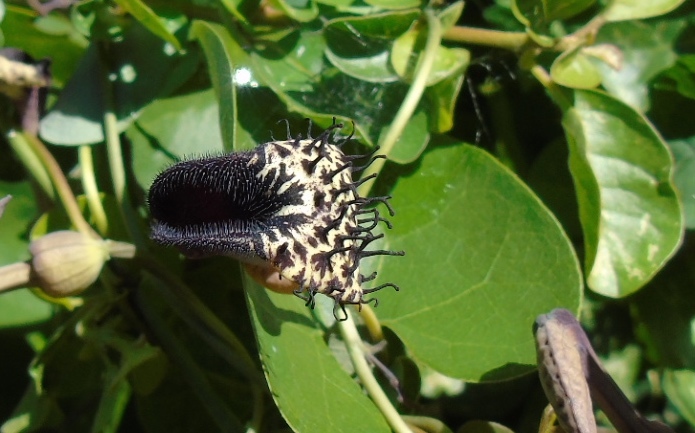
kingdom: Plantae
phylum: Tracheophyta
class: Magnoliopsida
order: Piperales
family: Aristolochiaceae
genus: Aristolochia
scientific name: Aristolochia taliscana
